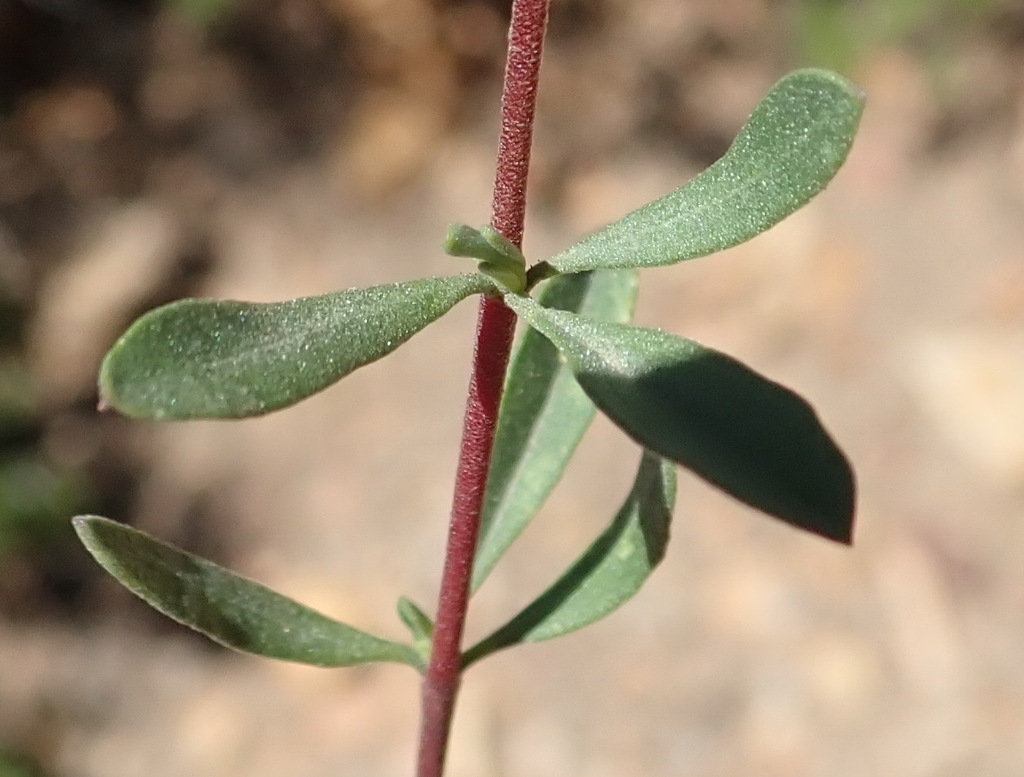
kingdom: Plantae
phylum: Tracheophyta
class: Magnoliopsida
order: Malvales
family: Malvaceae
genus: Hermannia
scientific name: Hermannia gracilis
